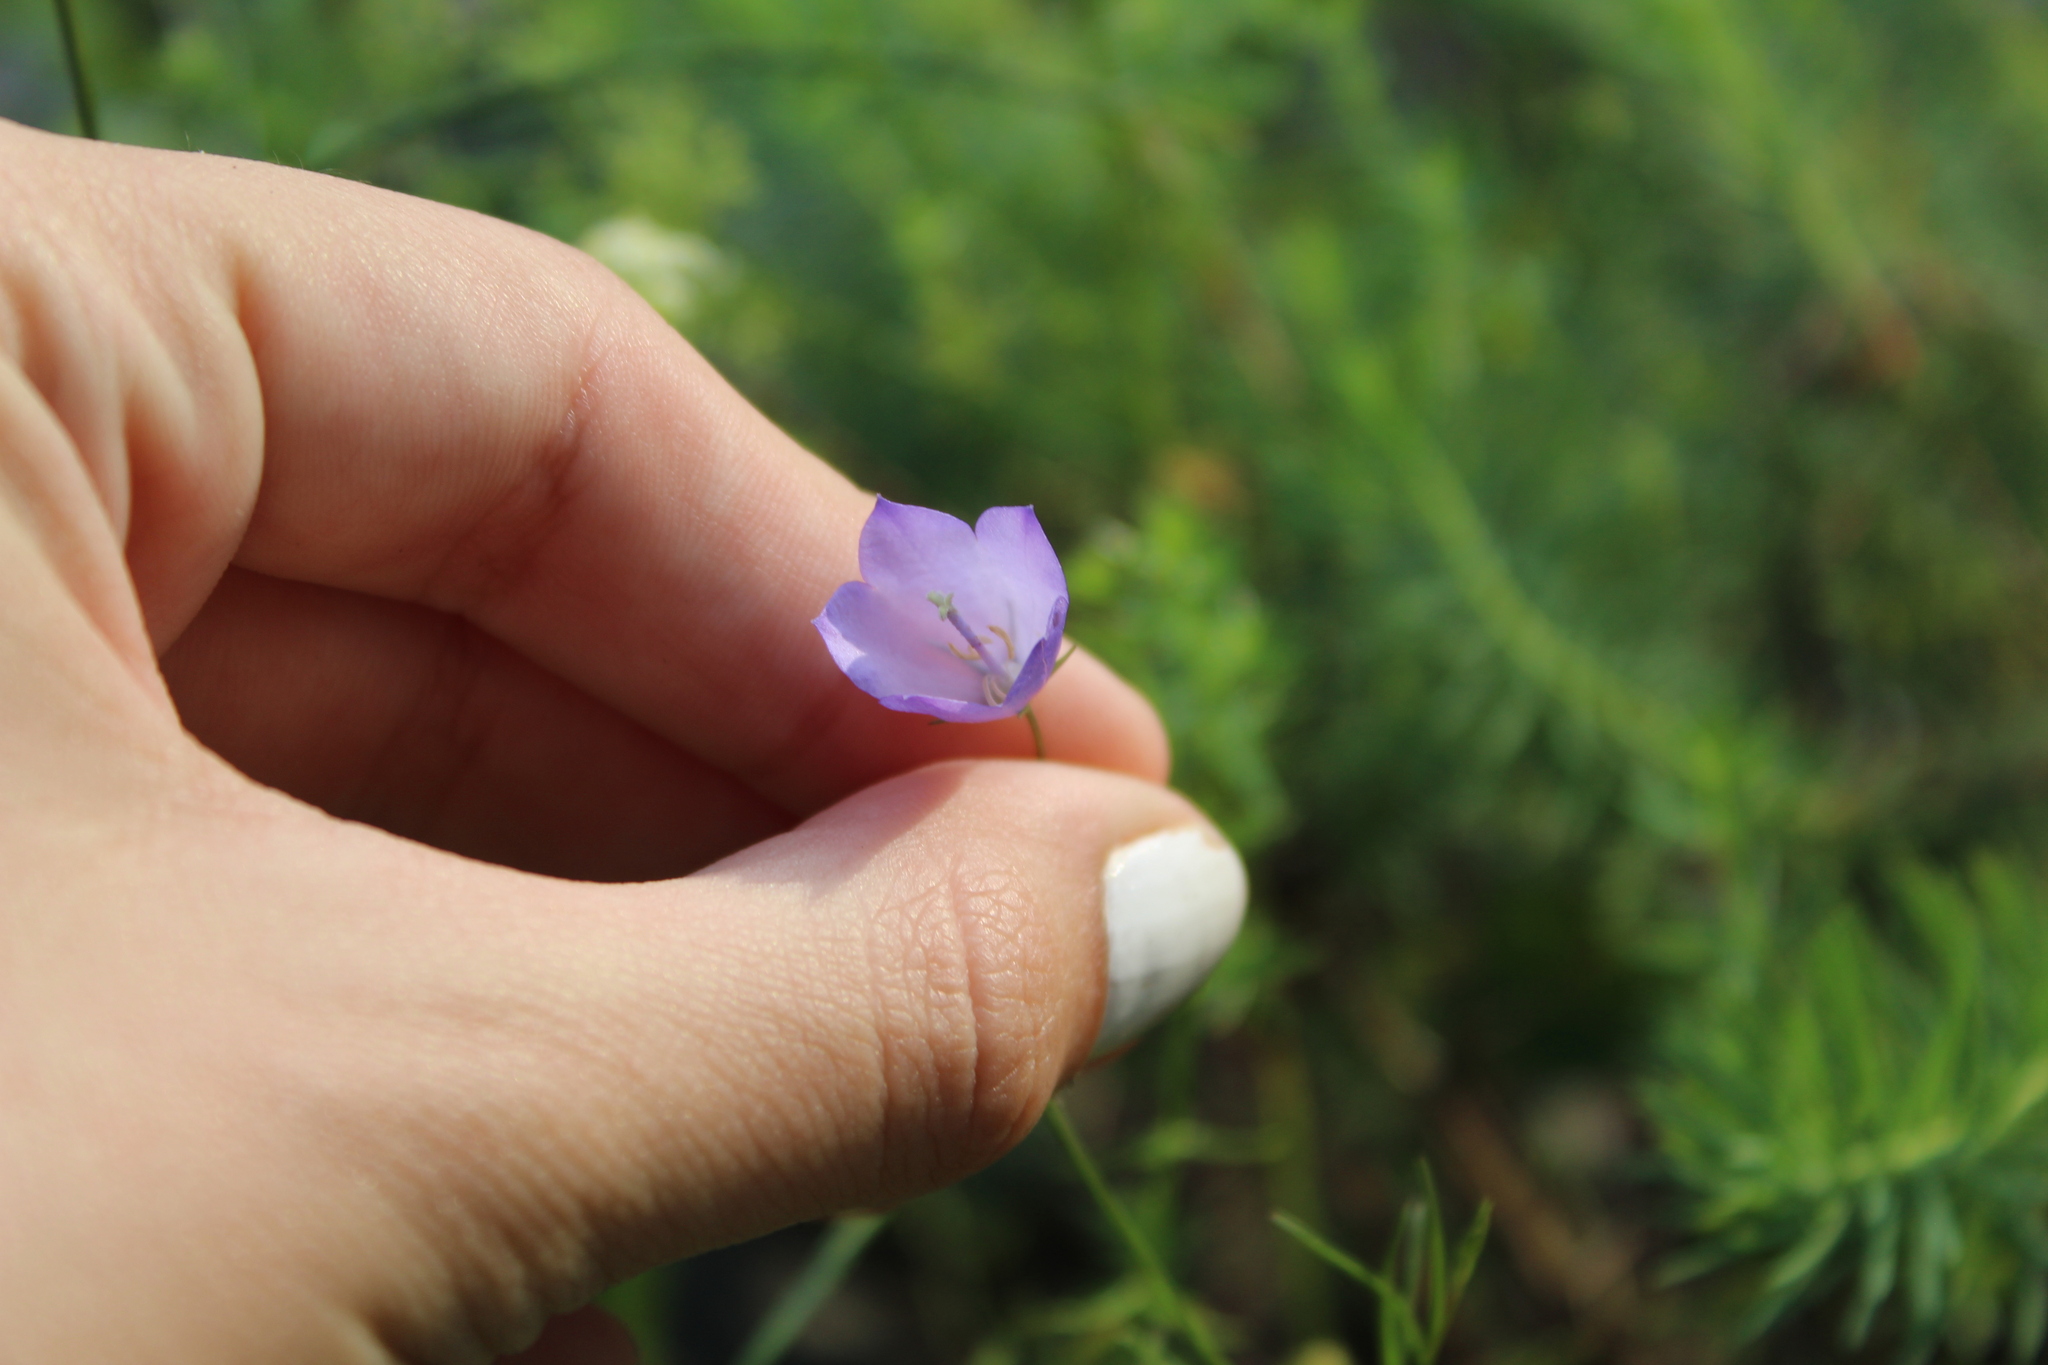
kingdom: Plantae
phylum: Tracheophyta
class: Magnoliopsida
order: Asterales
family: Campanulaceae
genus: Campanula
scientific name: Campanula intercedens
